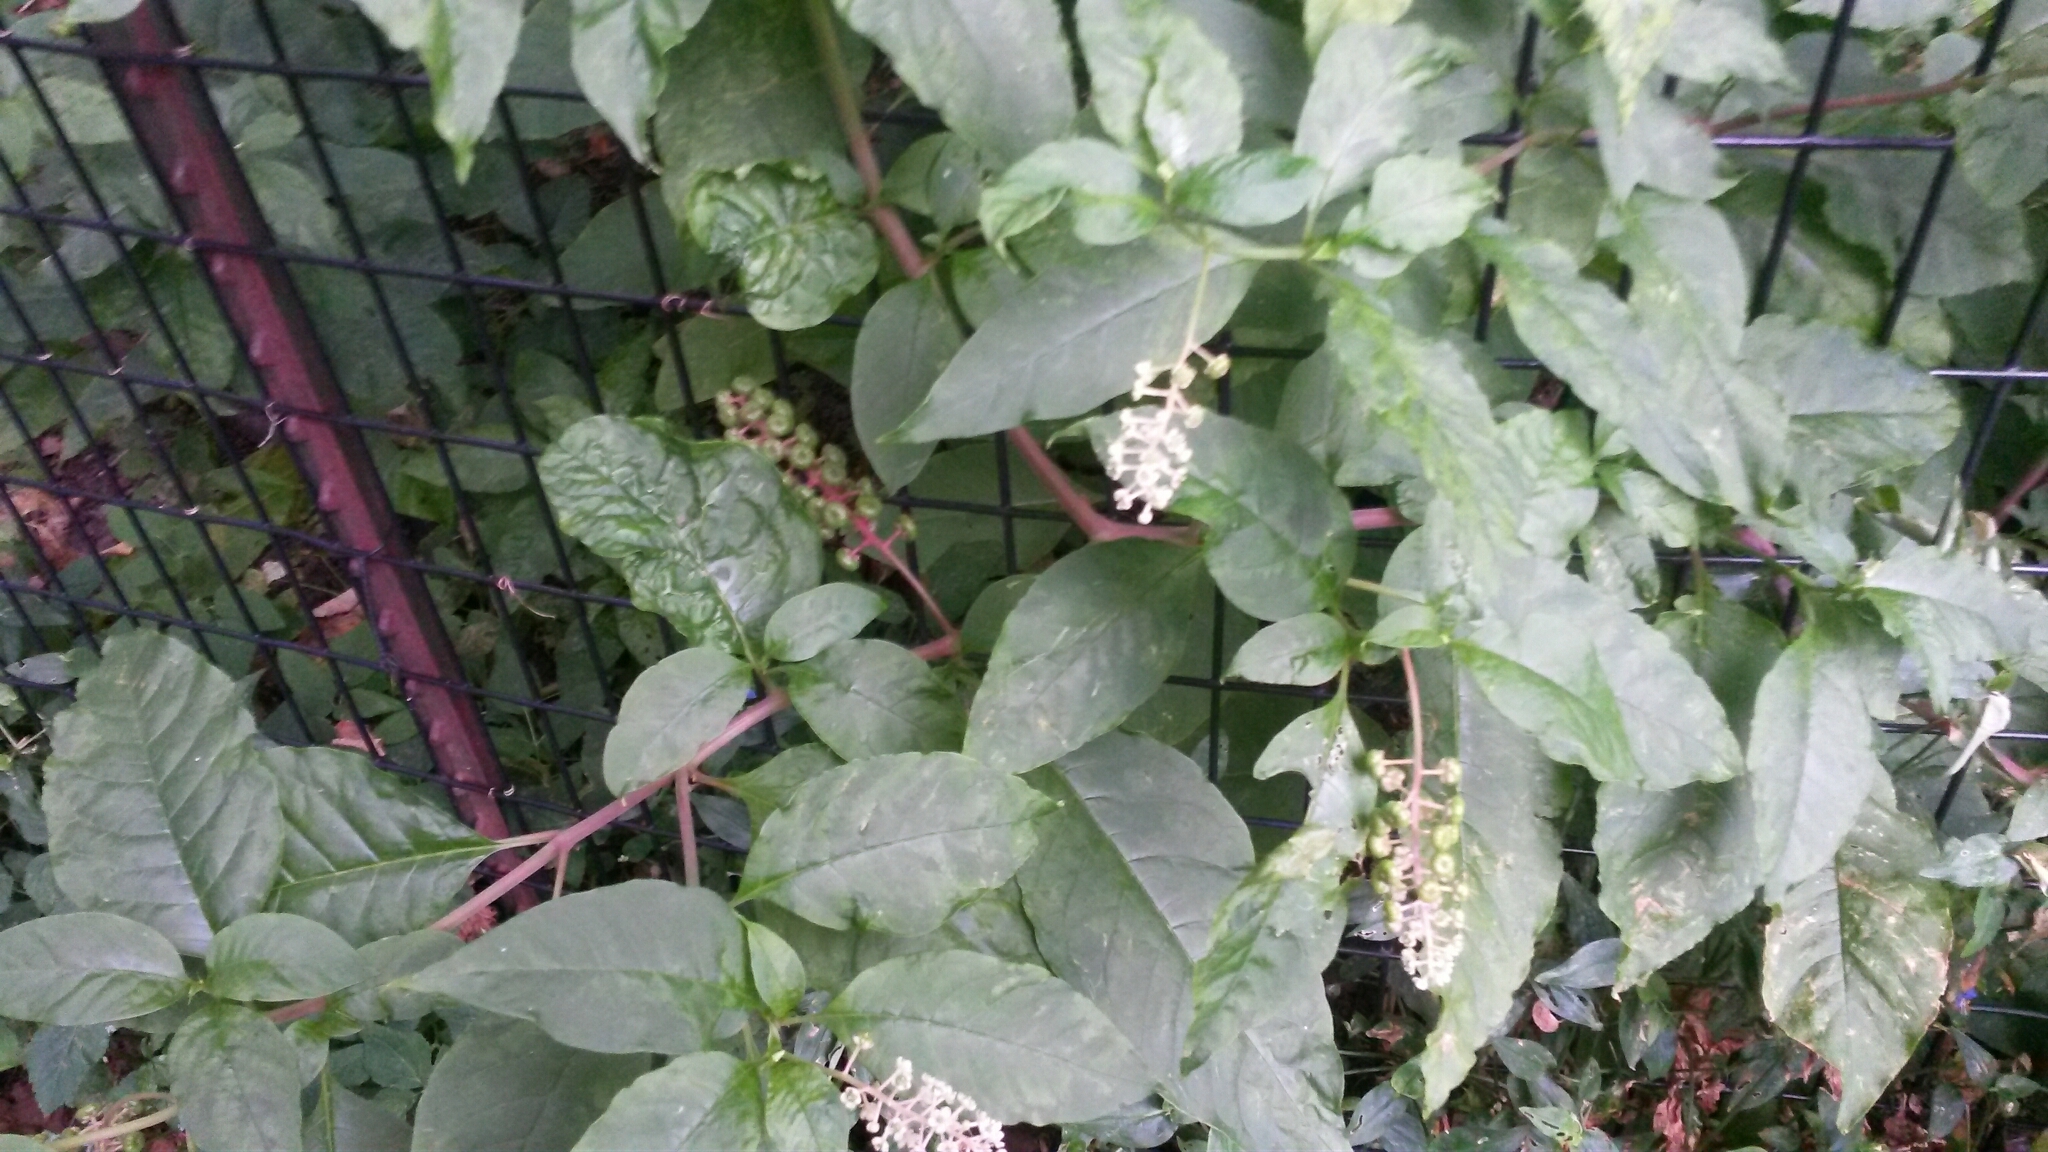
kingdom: Plantae
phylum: Tracheophyta
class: Magnoliopsida
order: Caryophyllales
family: Phytolaccaceae
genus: Phytolacca
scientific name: Phytolacca americana
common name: American pokeweed
